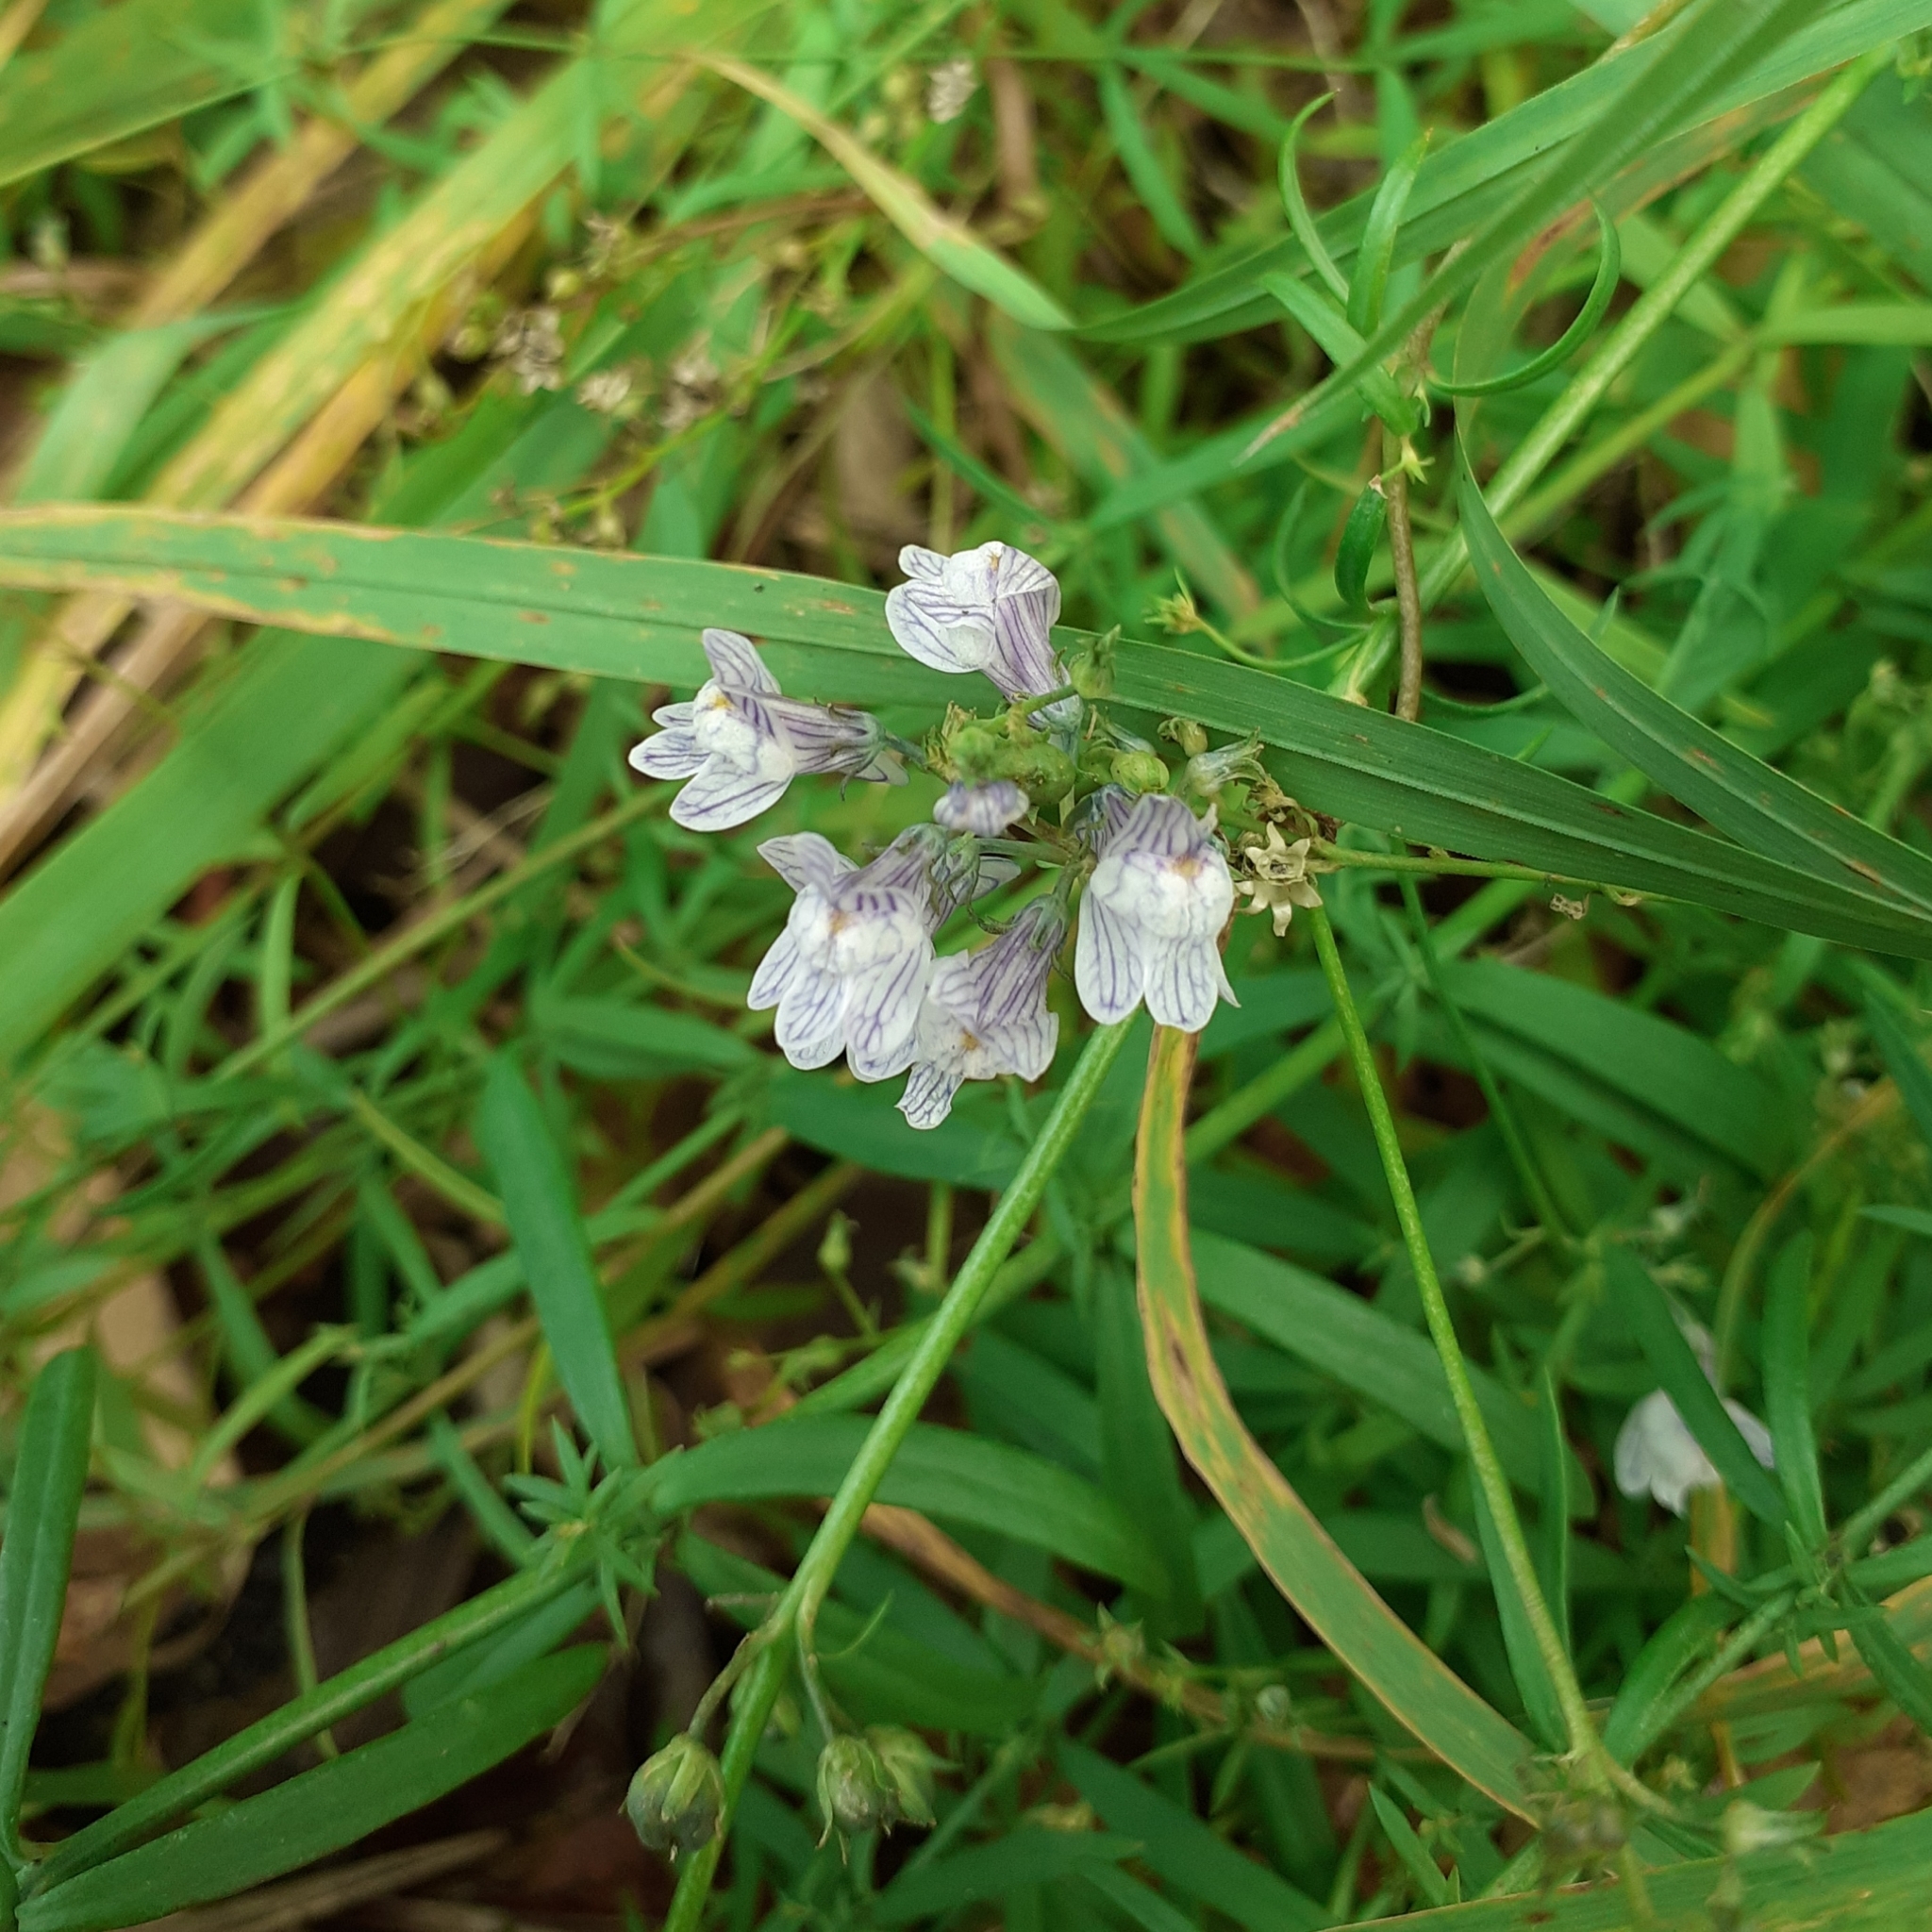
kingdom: Plantae
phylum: Tracheophyta
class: Magnoliopsida
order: Lamiales
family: Plantaginaceae
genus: Linaria
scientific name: Linaria repens
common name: Pale toadflax
